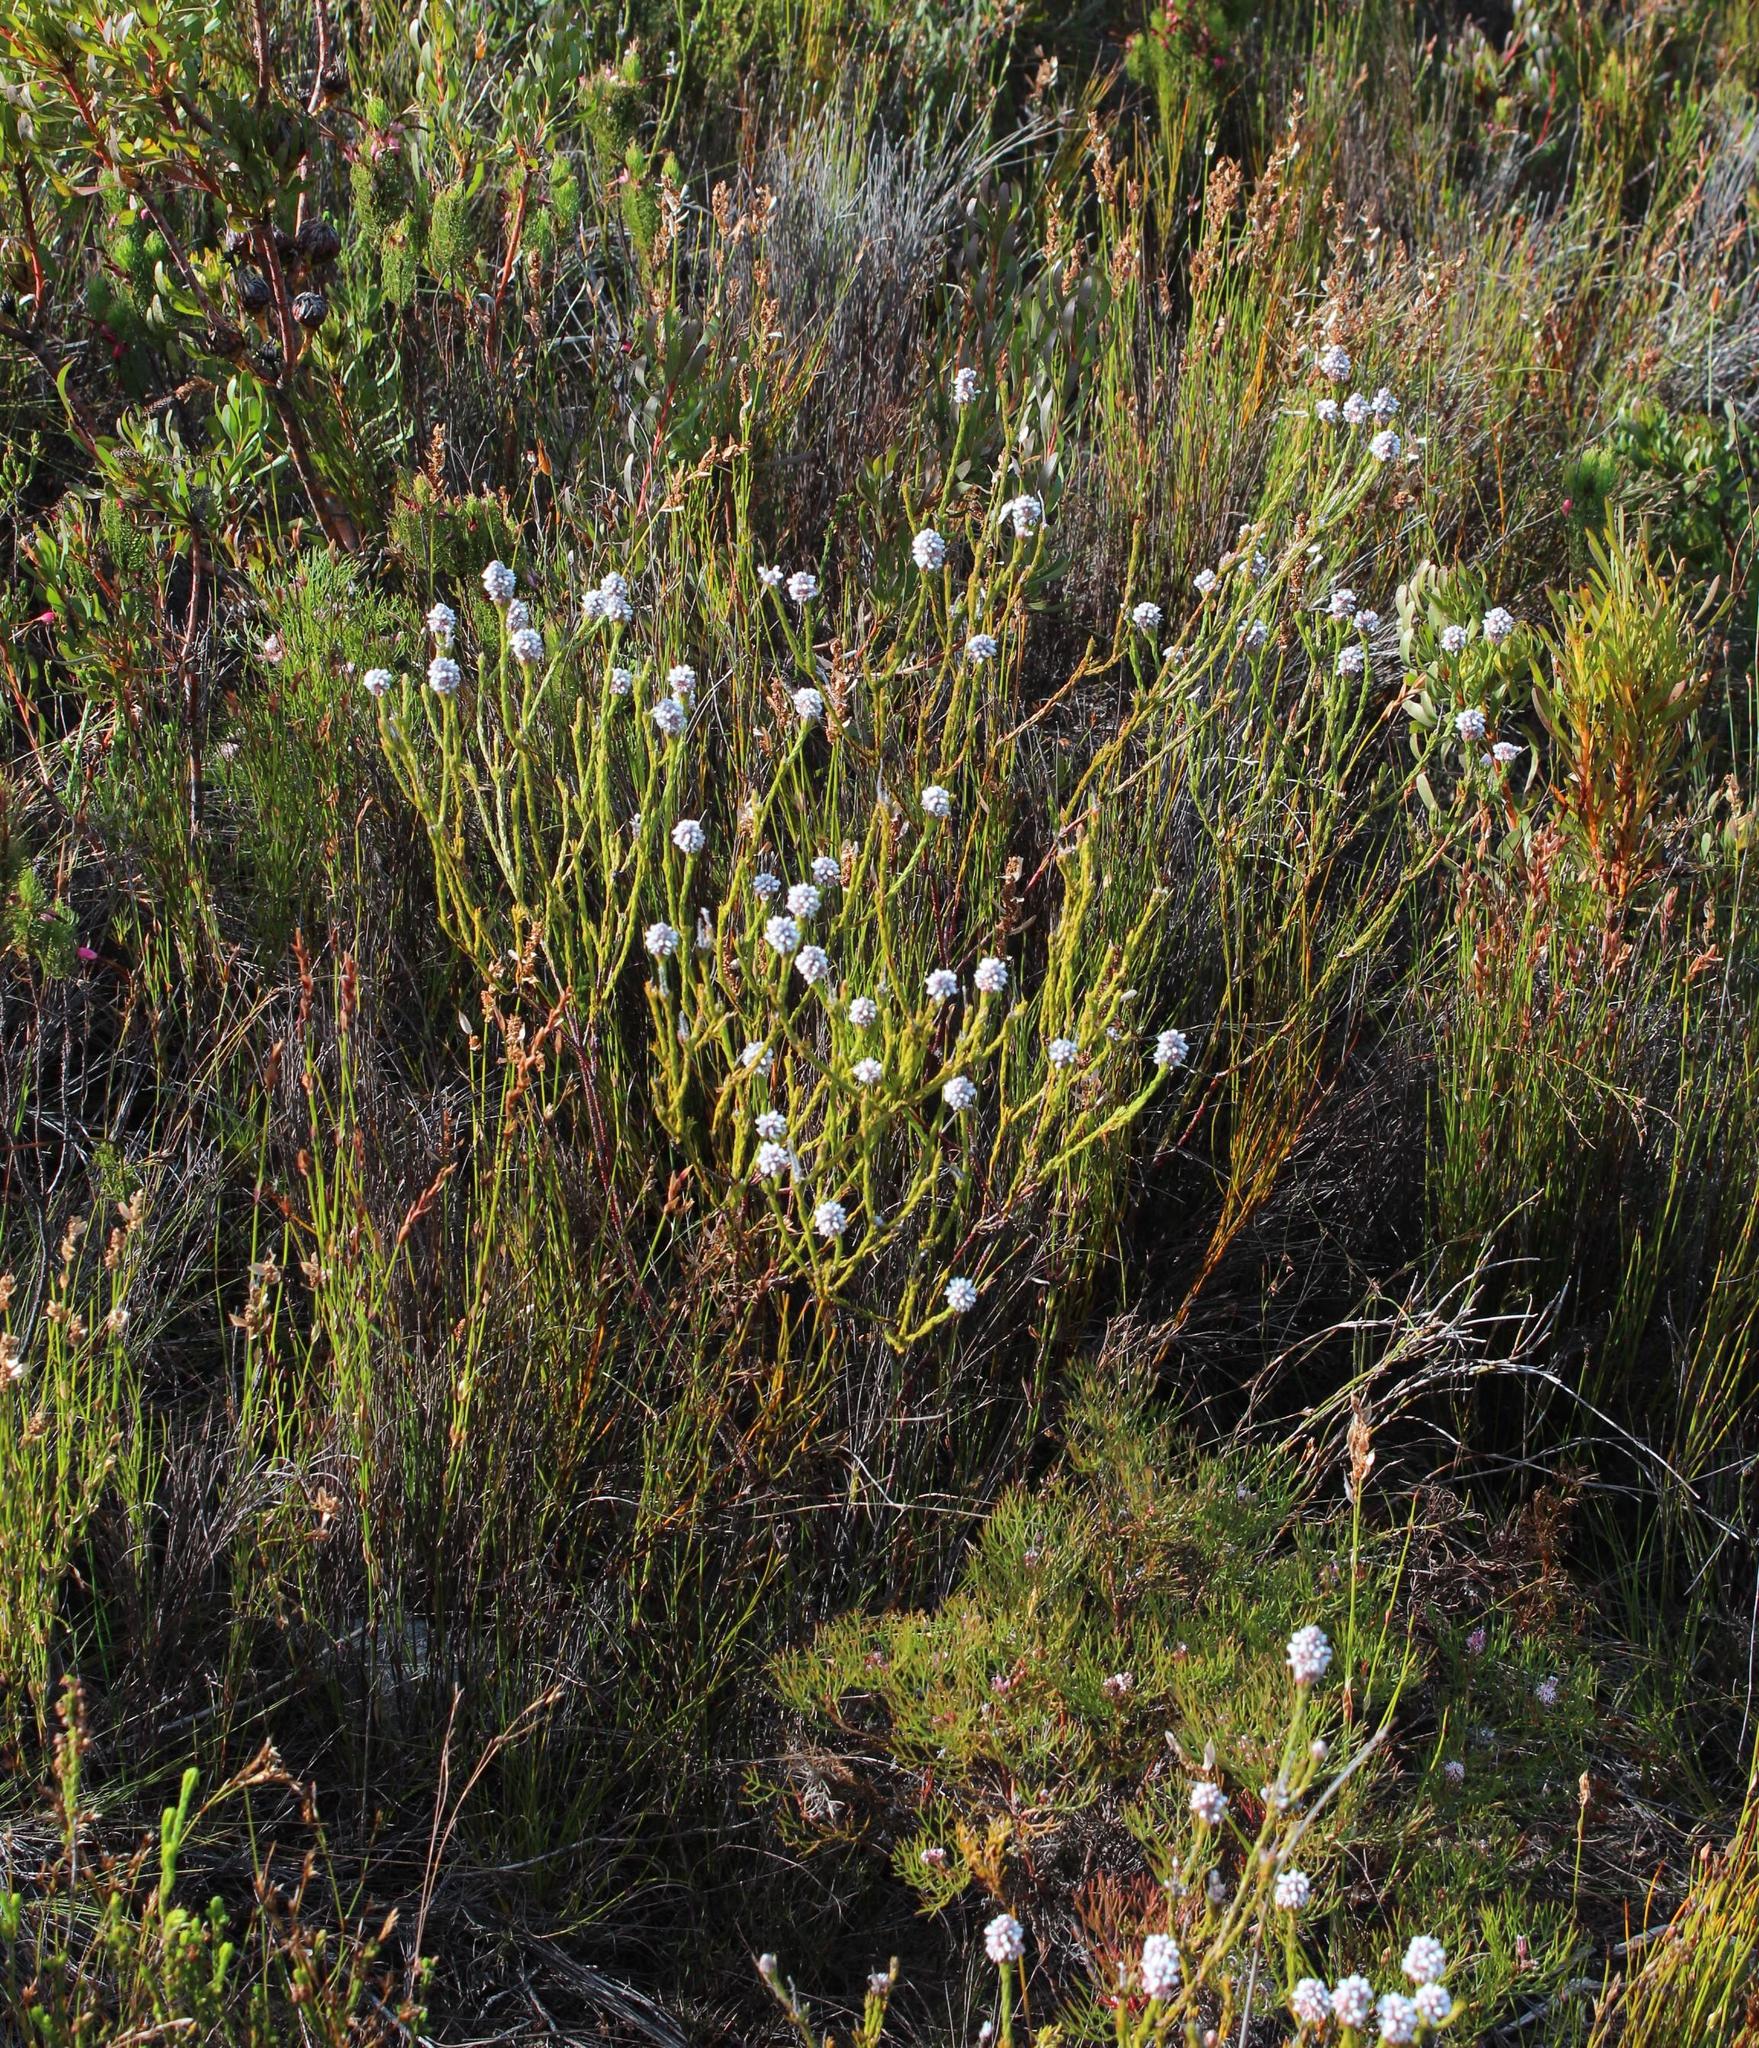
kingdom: Plantae
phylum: Tracheophyta
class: Magnoliopsida
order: Proteales
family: Proteaceae
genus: Spatalla
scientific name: Spatalla ericoides
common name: Erica-leaf spoon
